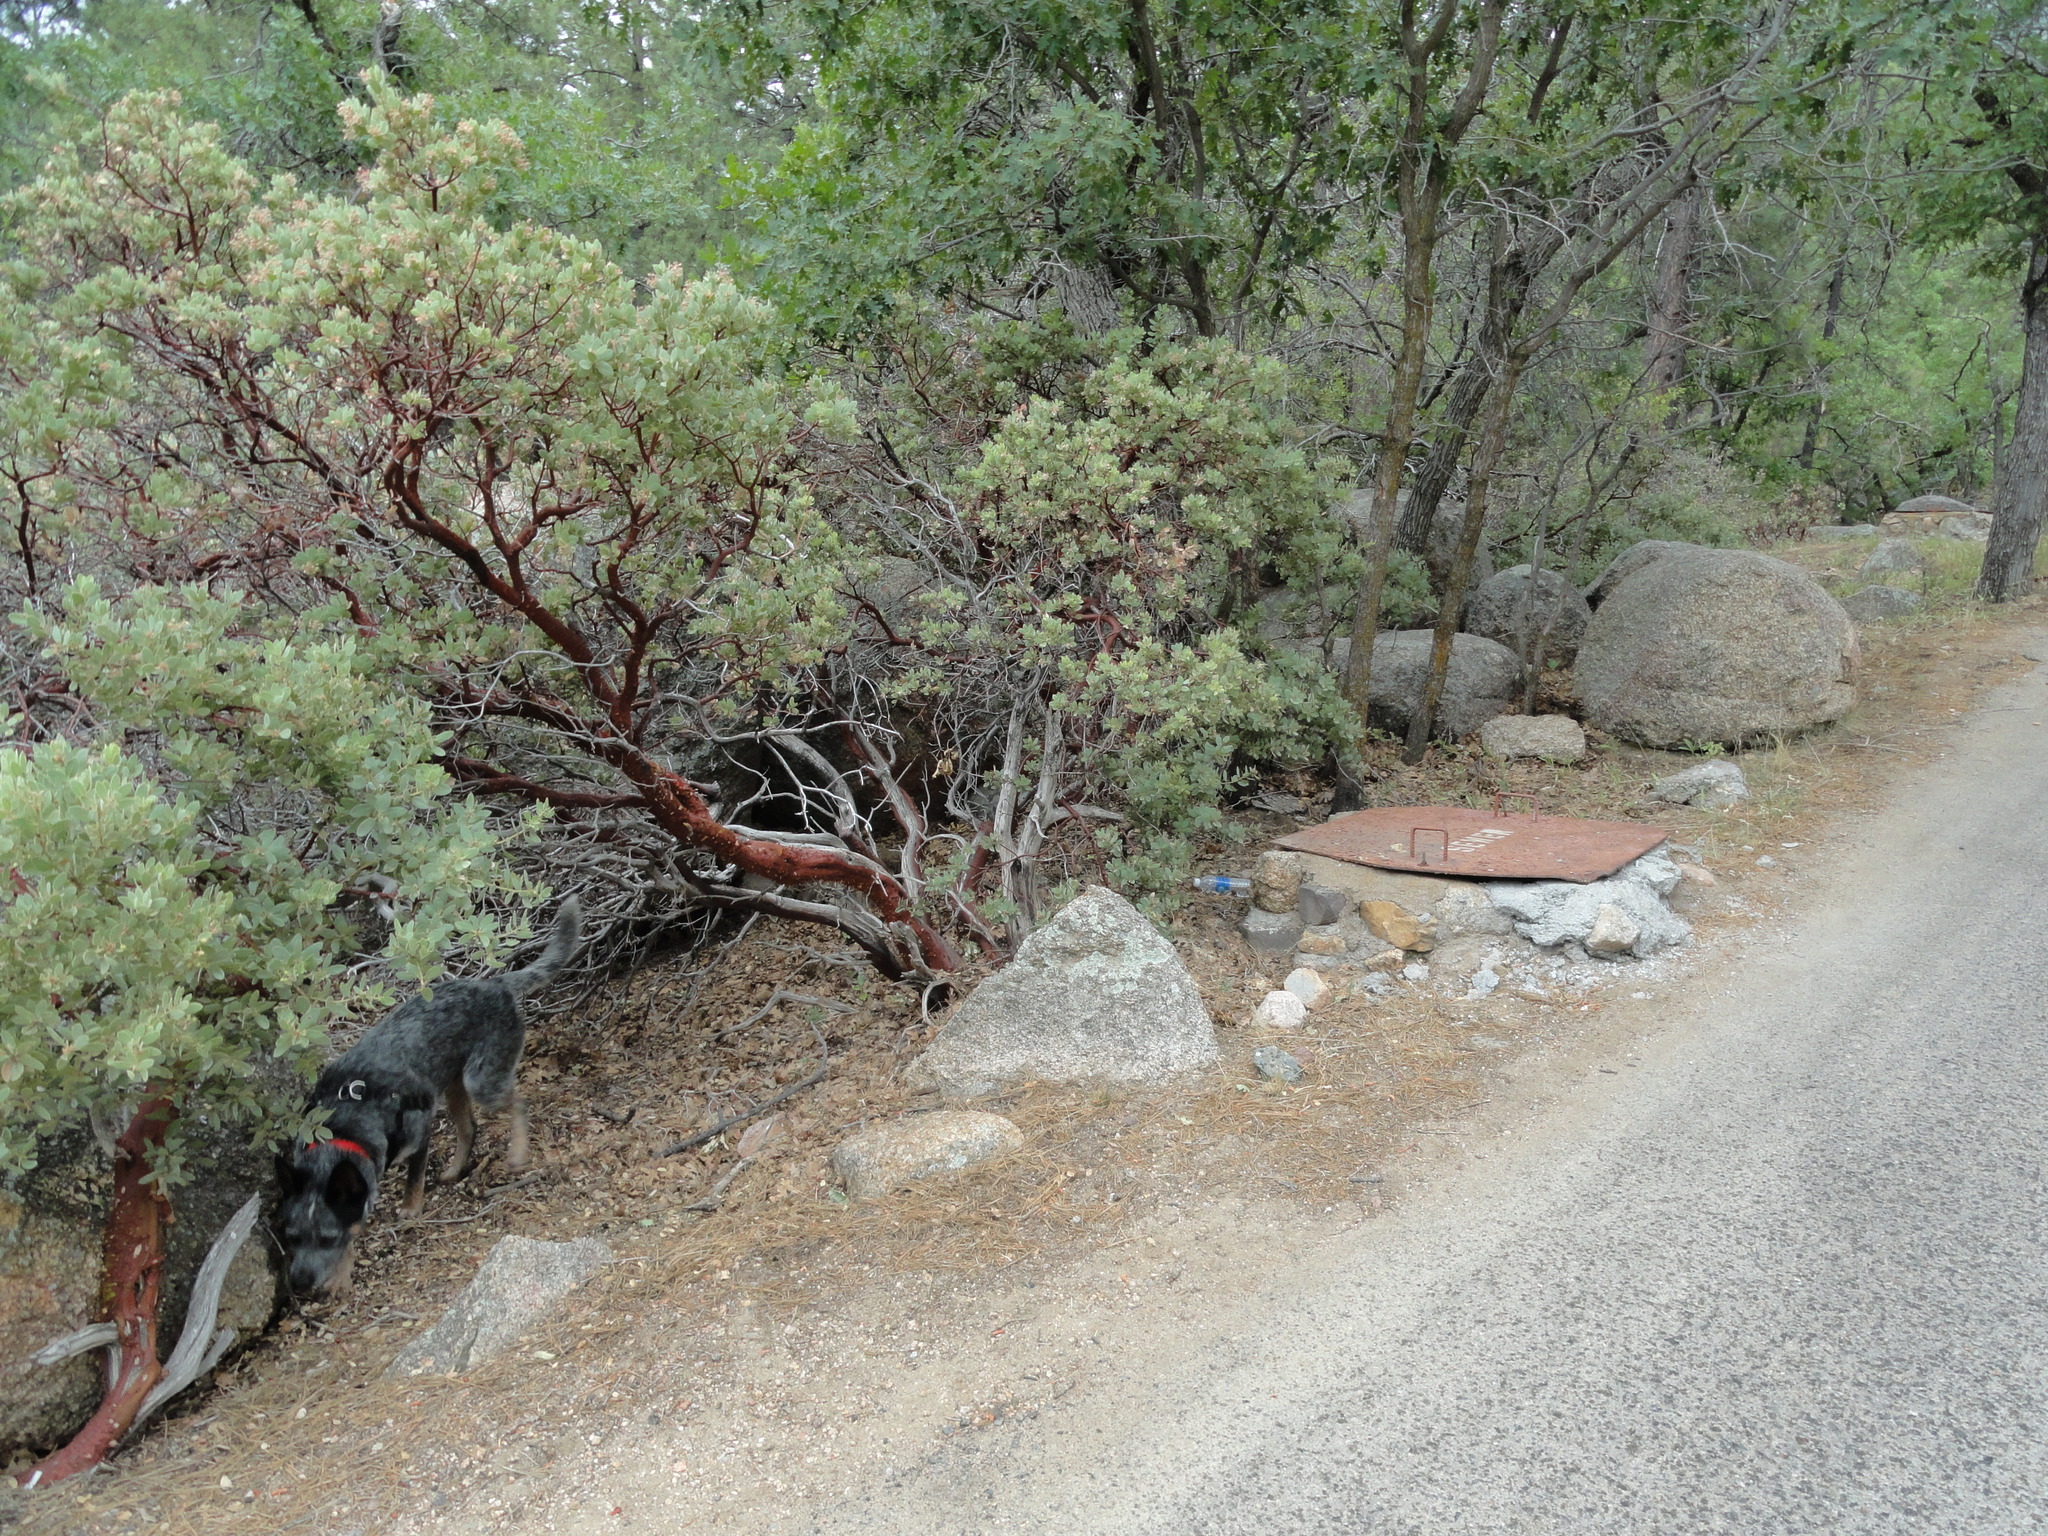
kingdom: Plantae
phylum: Tracheophyta
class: Magnoliopsida
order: Ericales
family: Ericaceae
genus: Arctostaphylos
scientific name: Arctostaphylos pringlei
